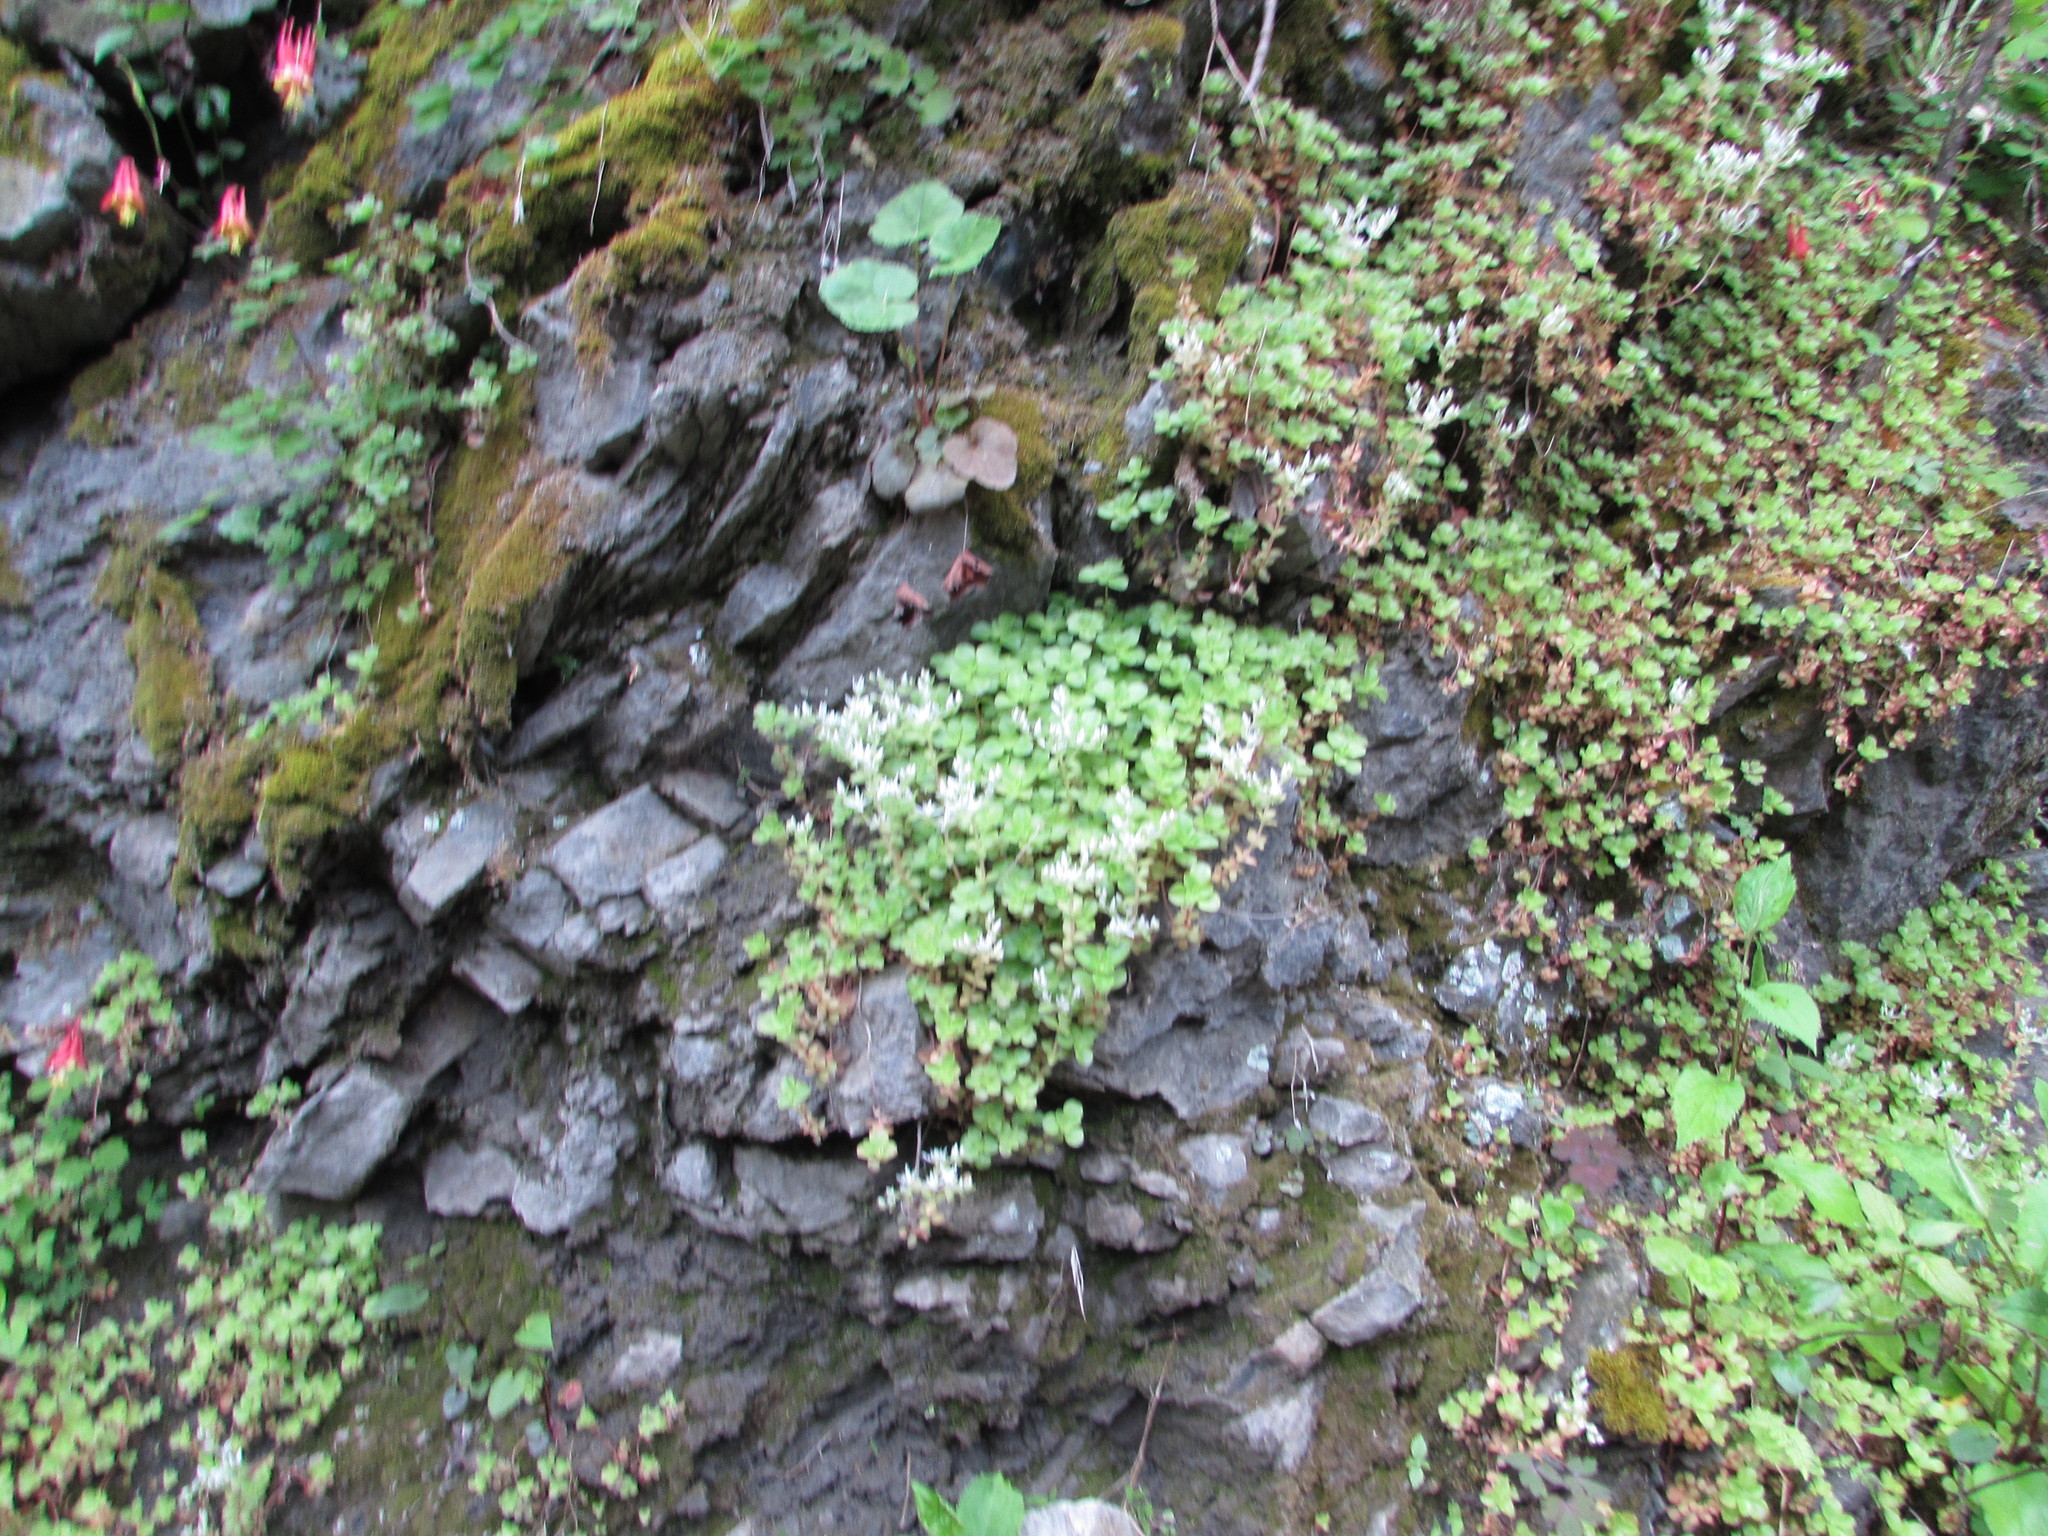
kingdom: Plantae
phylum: Tracheophyta
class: Magnoliopsida
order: Saxifragales
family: Crassulaceae
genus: Sedum
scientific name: Sedum ternatum
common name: Wild stonecrop
